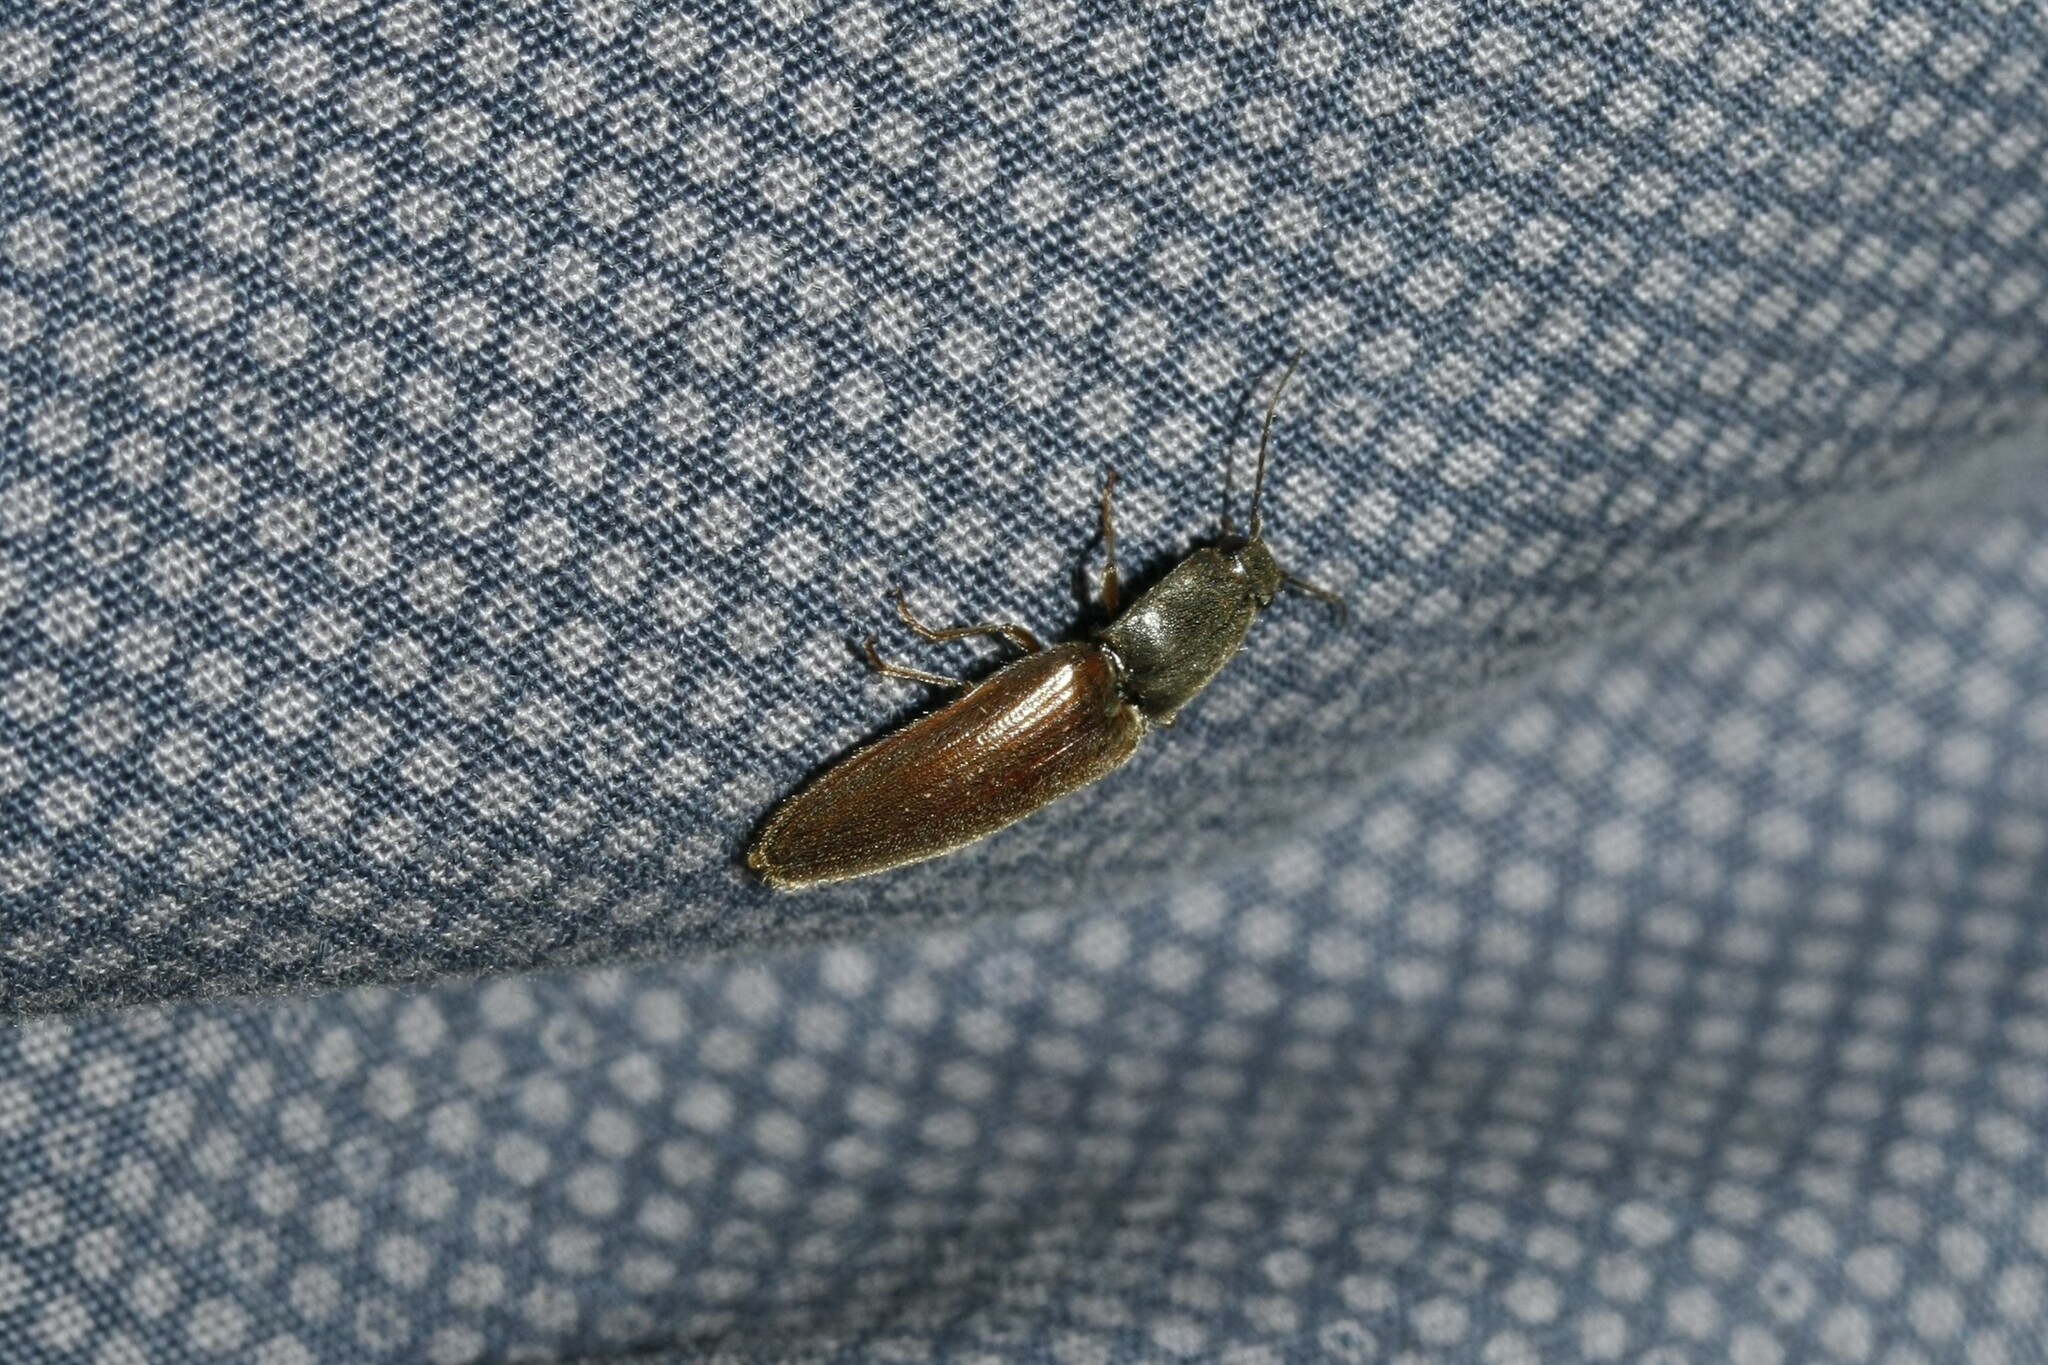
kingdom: Animalia
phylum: Arthropoda
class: Insecta
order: Coleoptera
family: Elateridae
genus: Athous
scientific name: Athous haemorrhoidalis
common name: Red-brown click beetle
